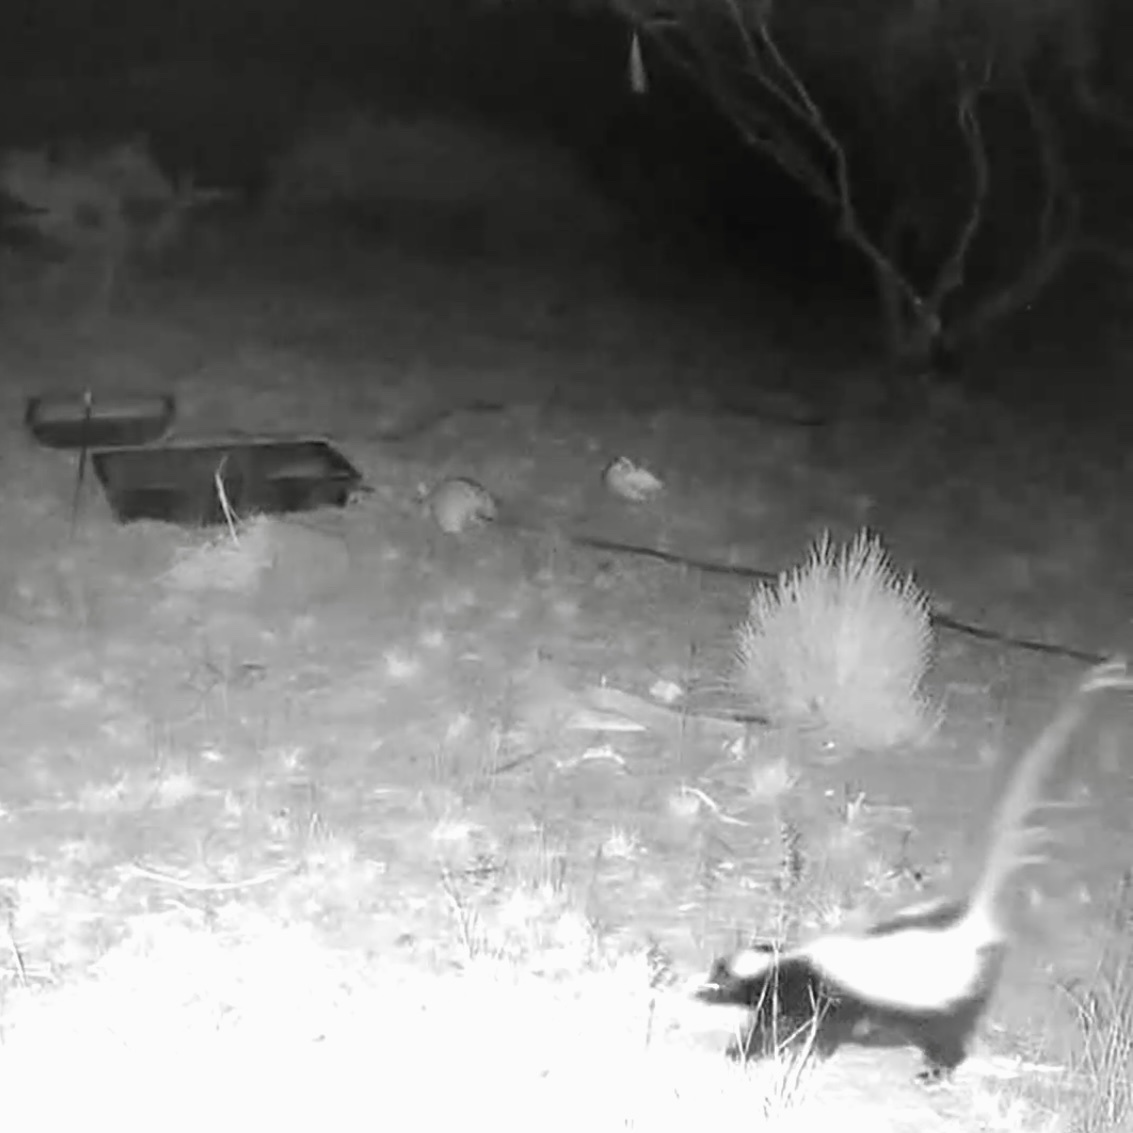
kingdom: Animalia
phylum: Chordata
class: Mammalia
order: Carnivora
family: Mephitidae
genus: Mephitis
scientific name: Mephitis mephitis
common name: Striped skunk
